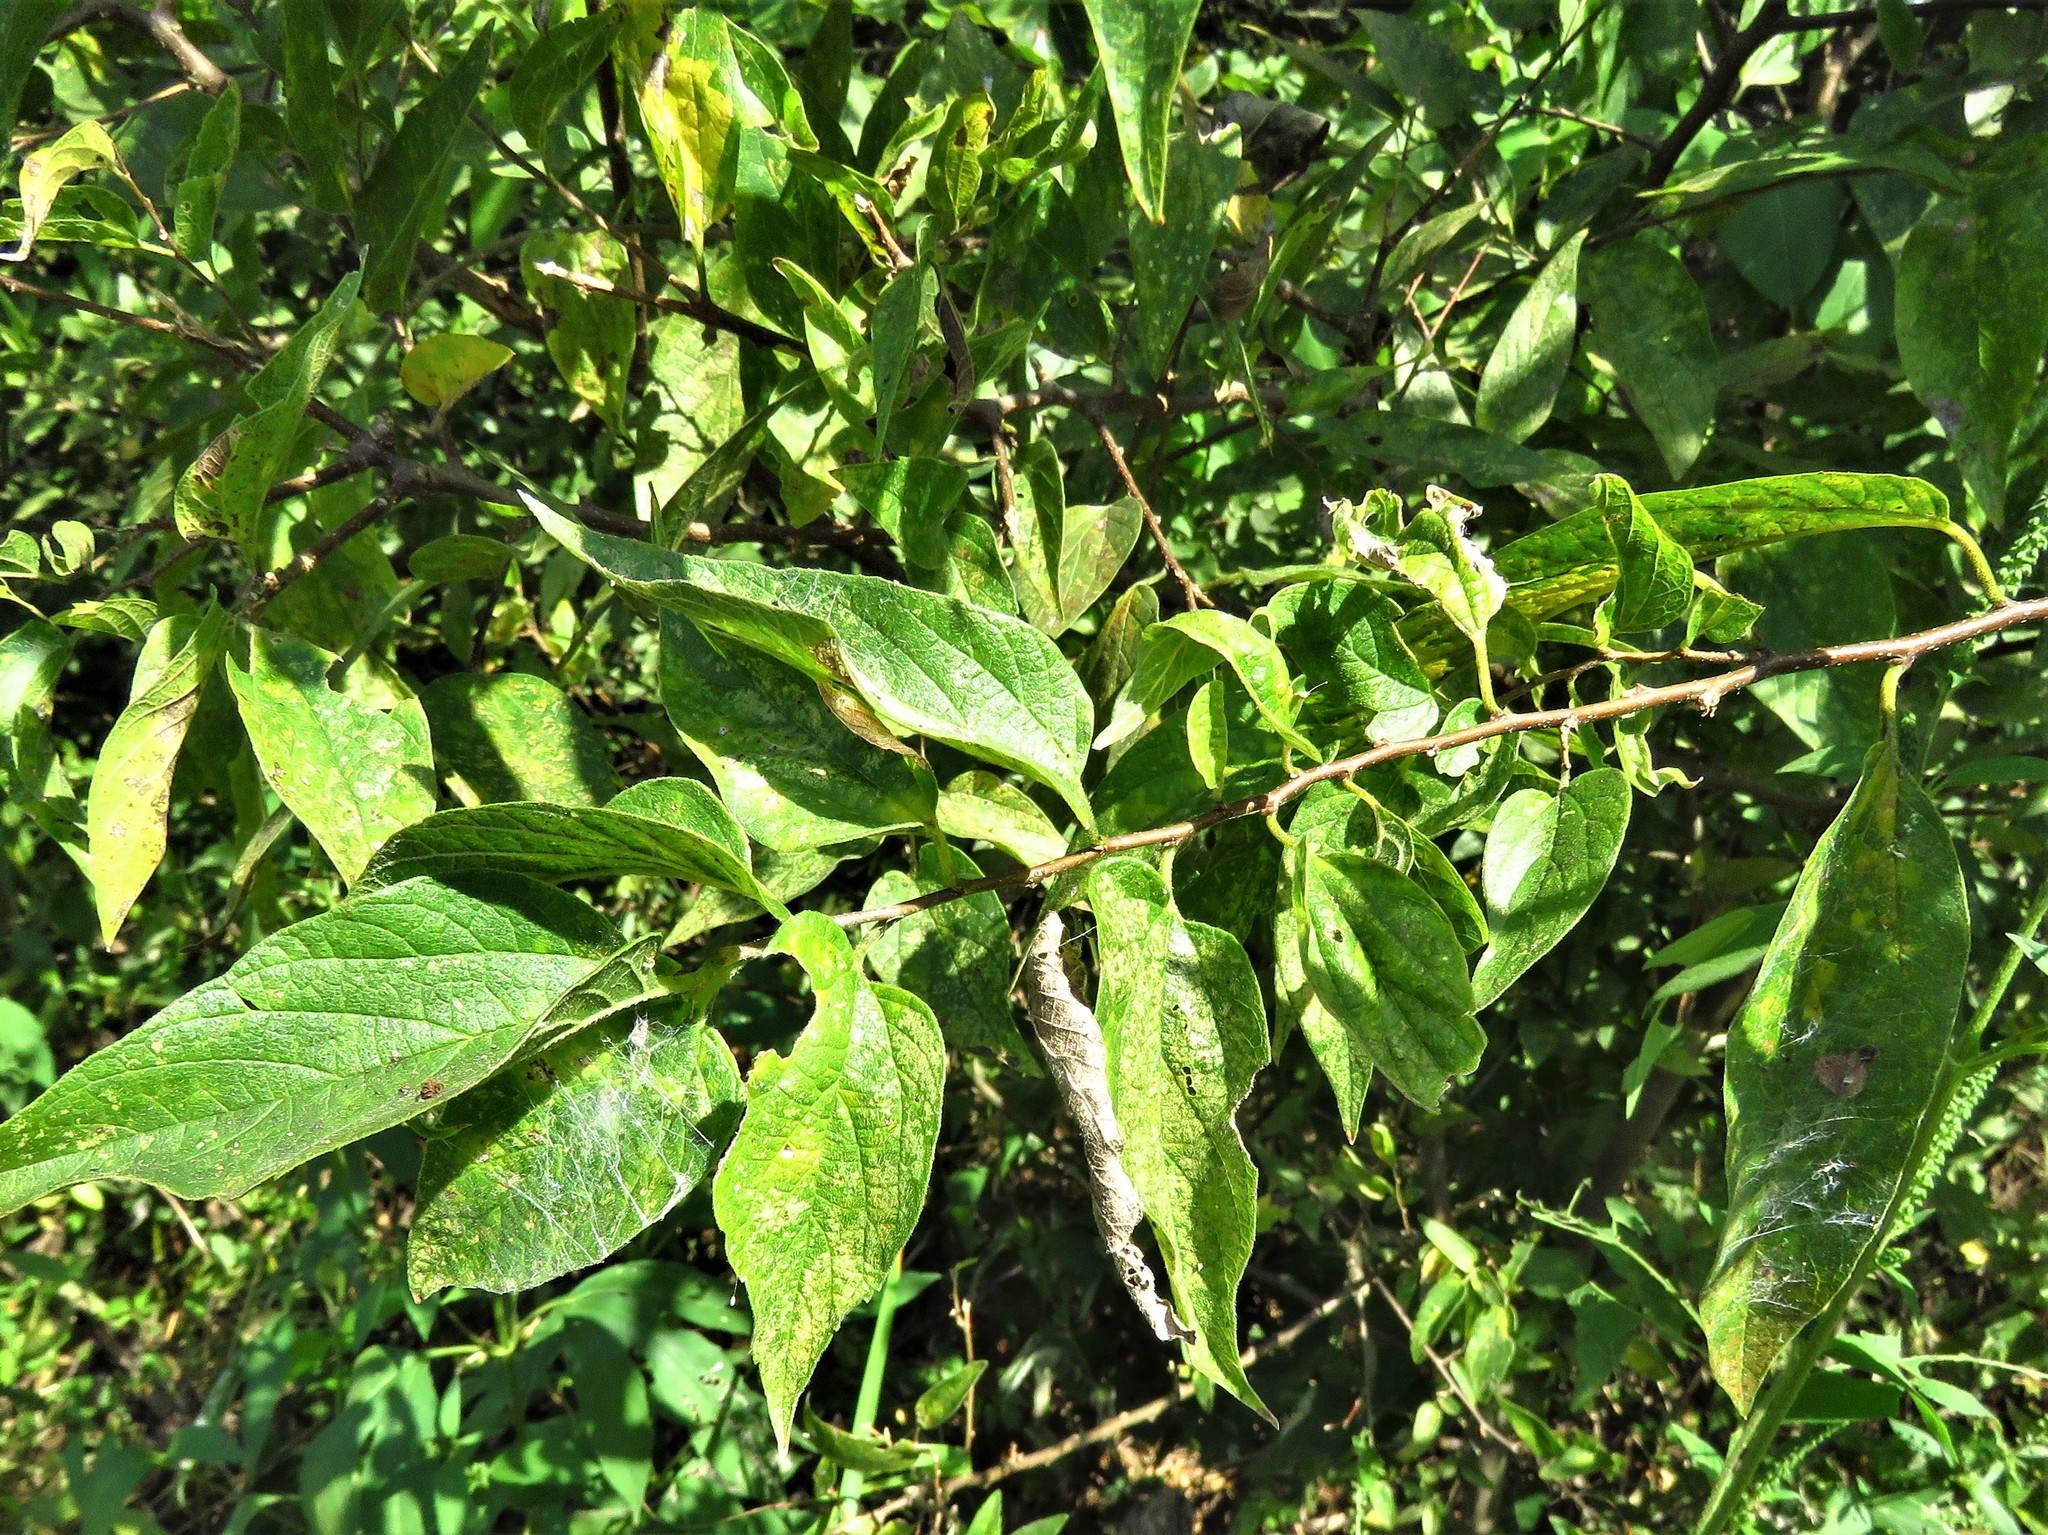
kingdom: Plantae
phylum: Tracheophyta
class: Magnoliopsida
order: Rosales
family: Cannabaceae
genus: Celtis
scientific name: Celtis laevigata
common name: Sugarberry
